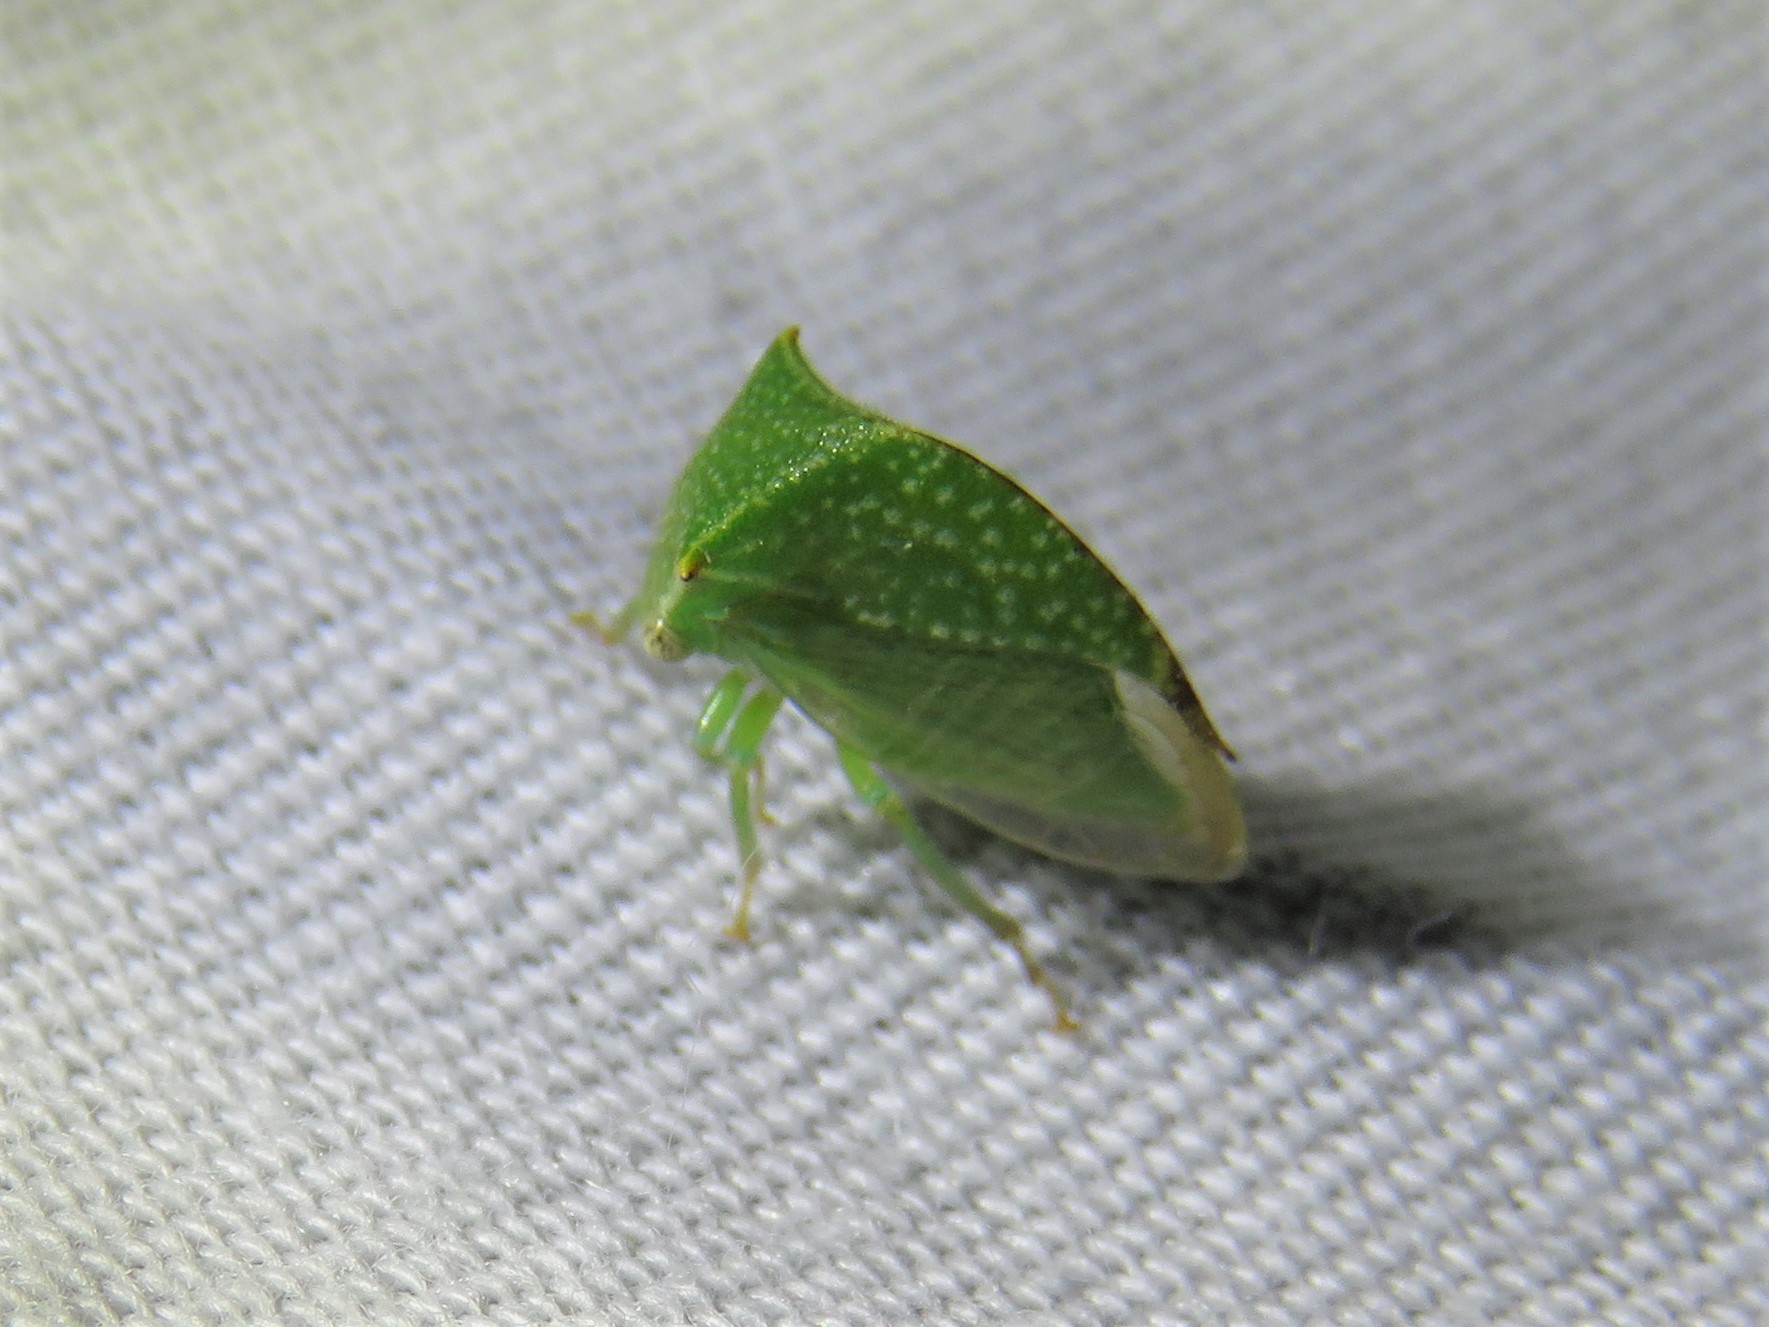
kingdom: Animalia
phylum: Arthropoda
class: Insecta
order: Hemiptera
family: Membracidae
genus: Hadrophallus
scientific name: Hadrophallus varians
